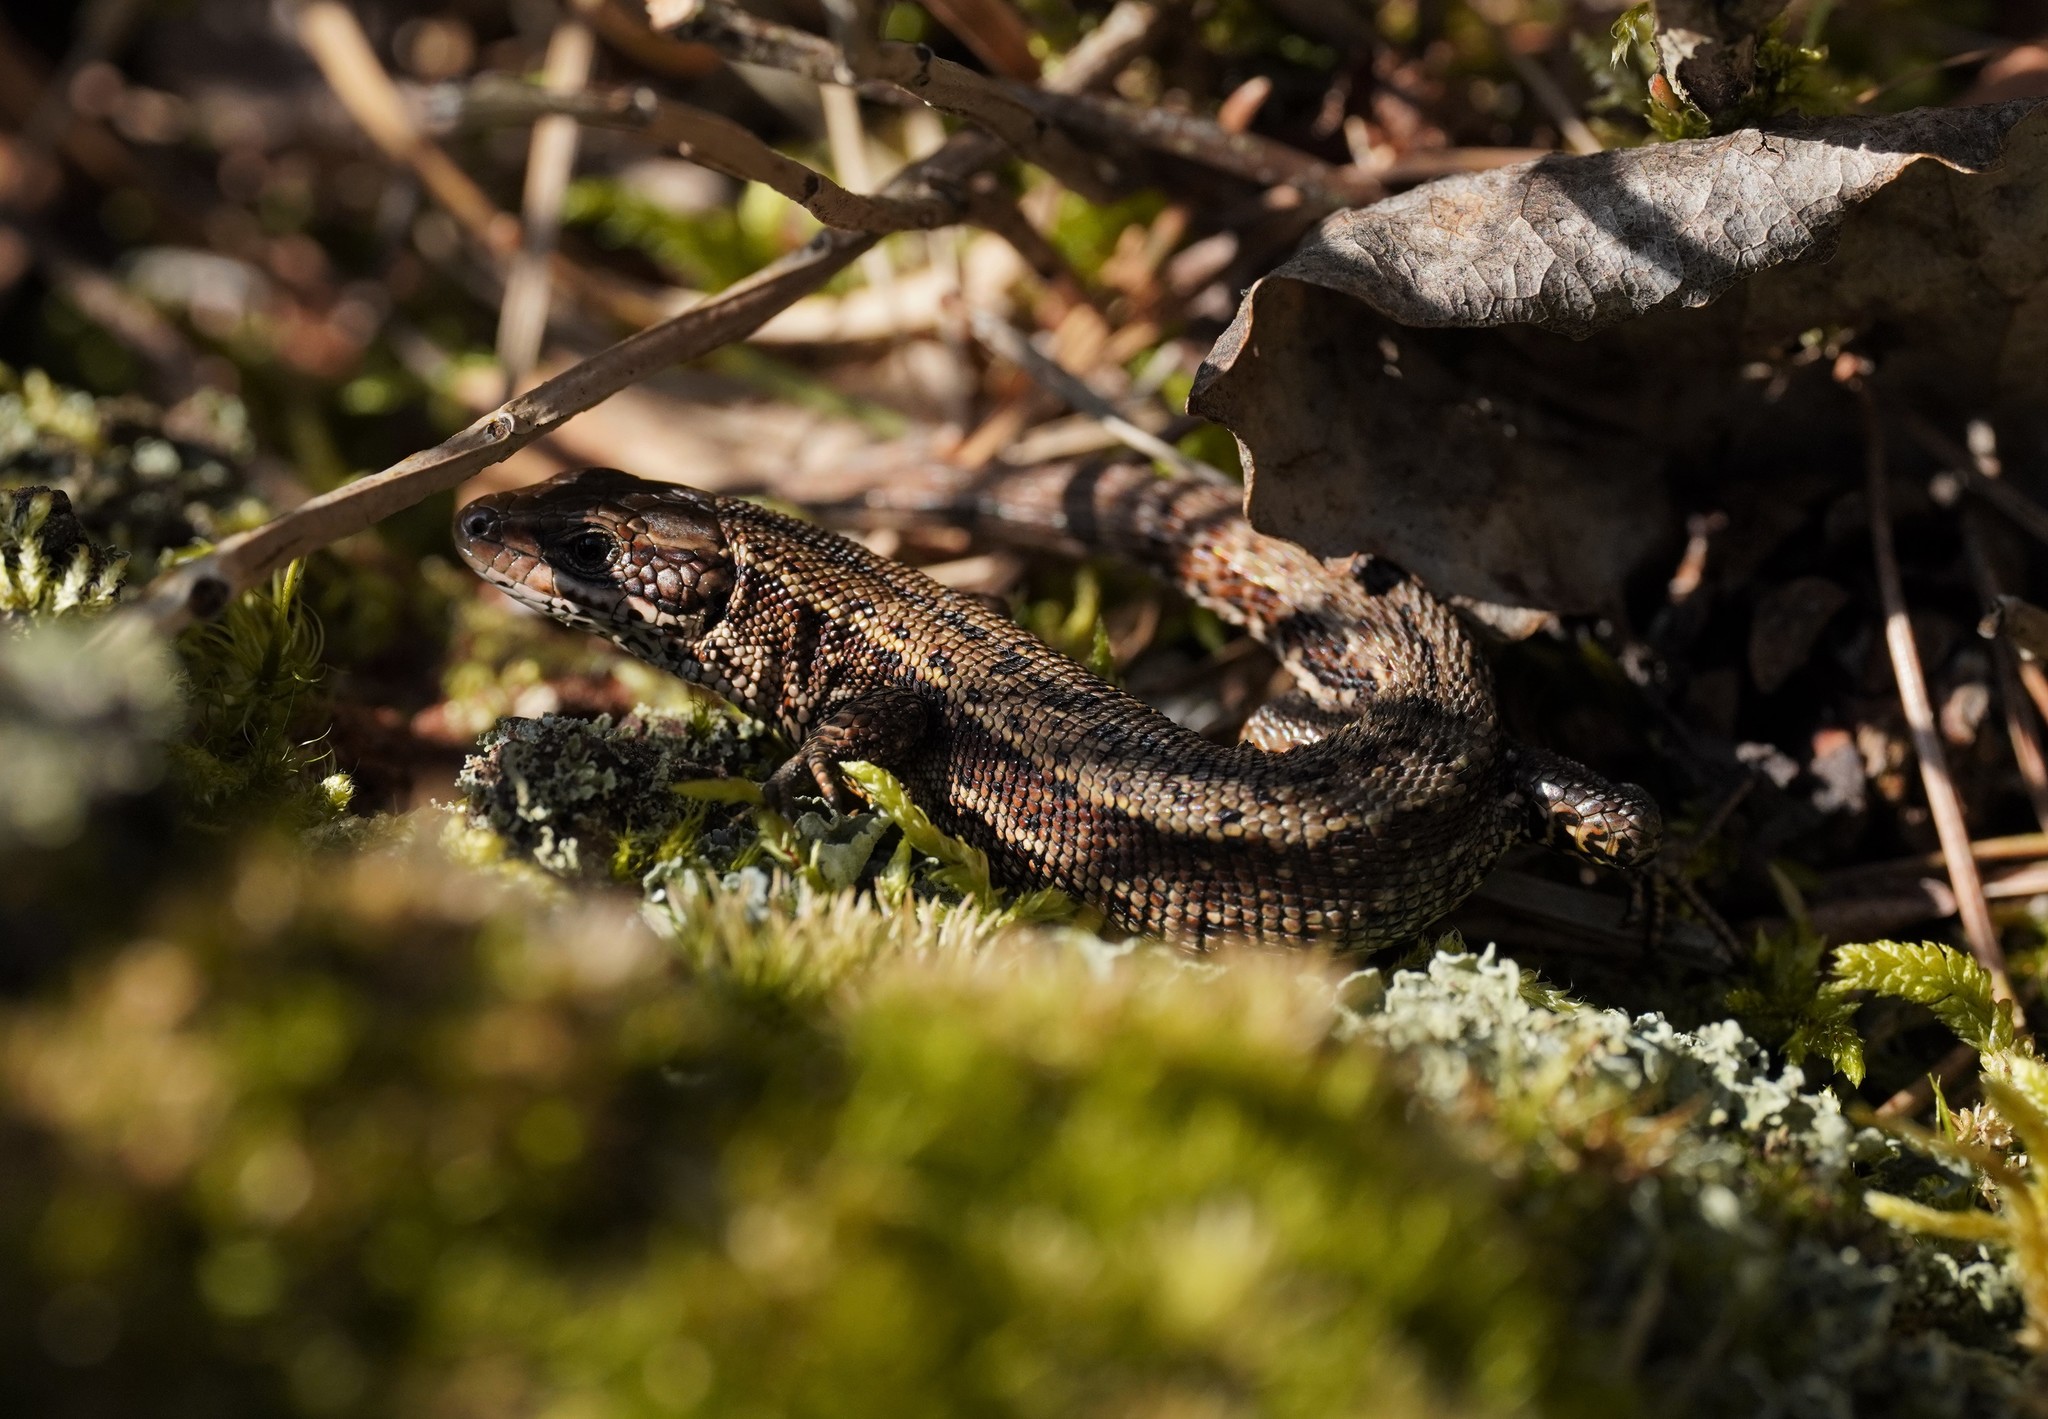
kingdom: Animalia
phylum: Chordata
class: Squamata
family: Lacertidae
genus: Zootoca
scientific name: Zootoca vivipara
